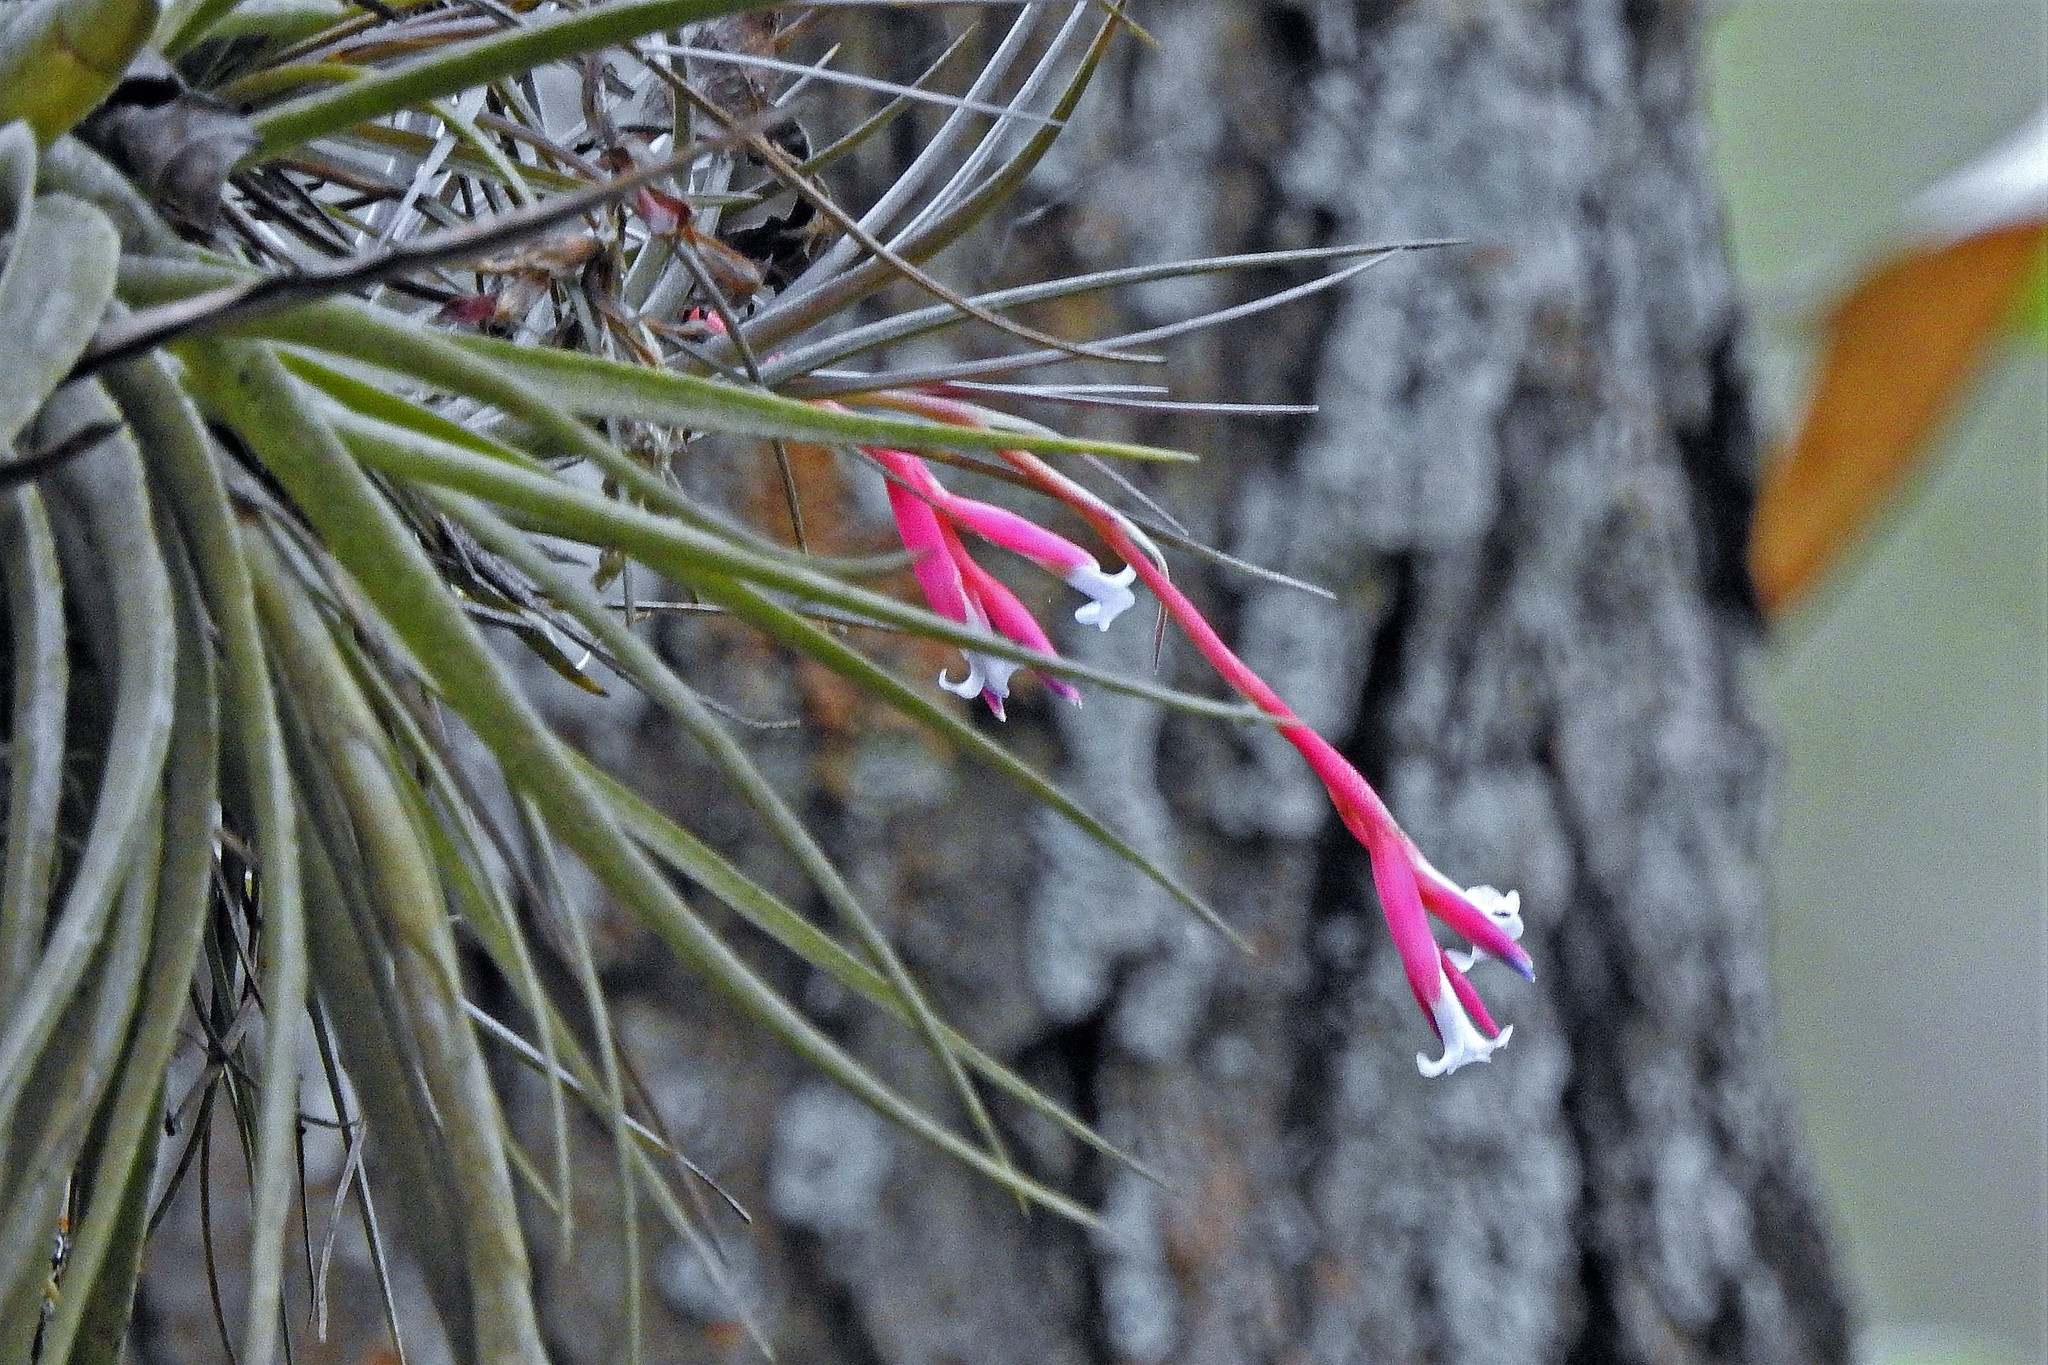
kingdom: Plantae
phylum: Tracheophyta
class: Liliopsida
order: Poales
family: Bromeliaceae
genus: Tillandsia
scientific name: Tillandsia tenuifolia
